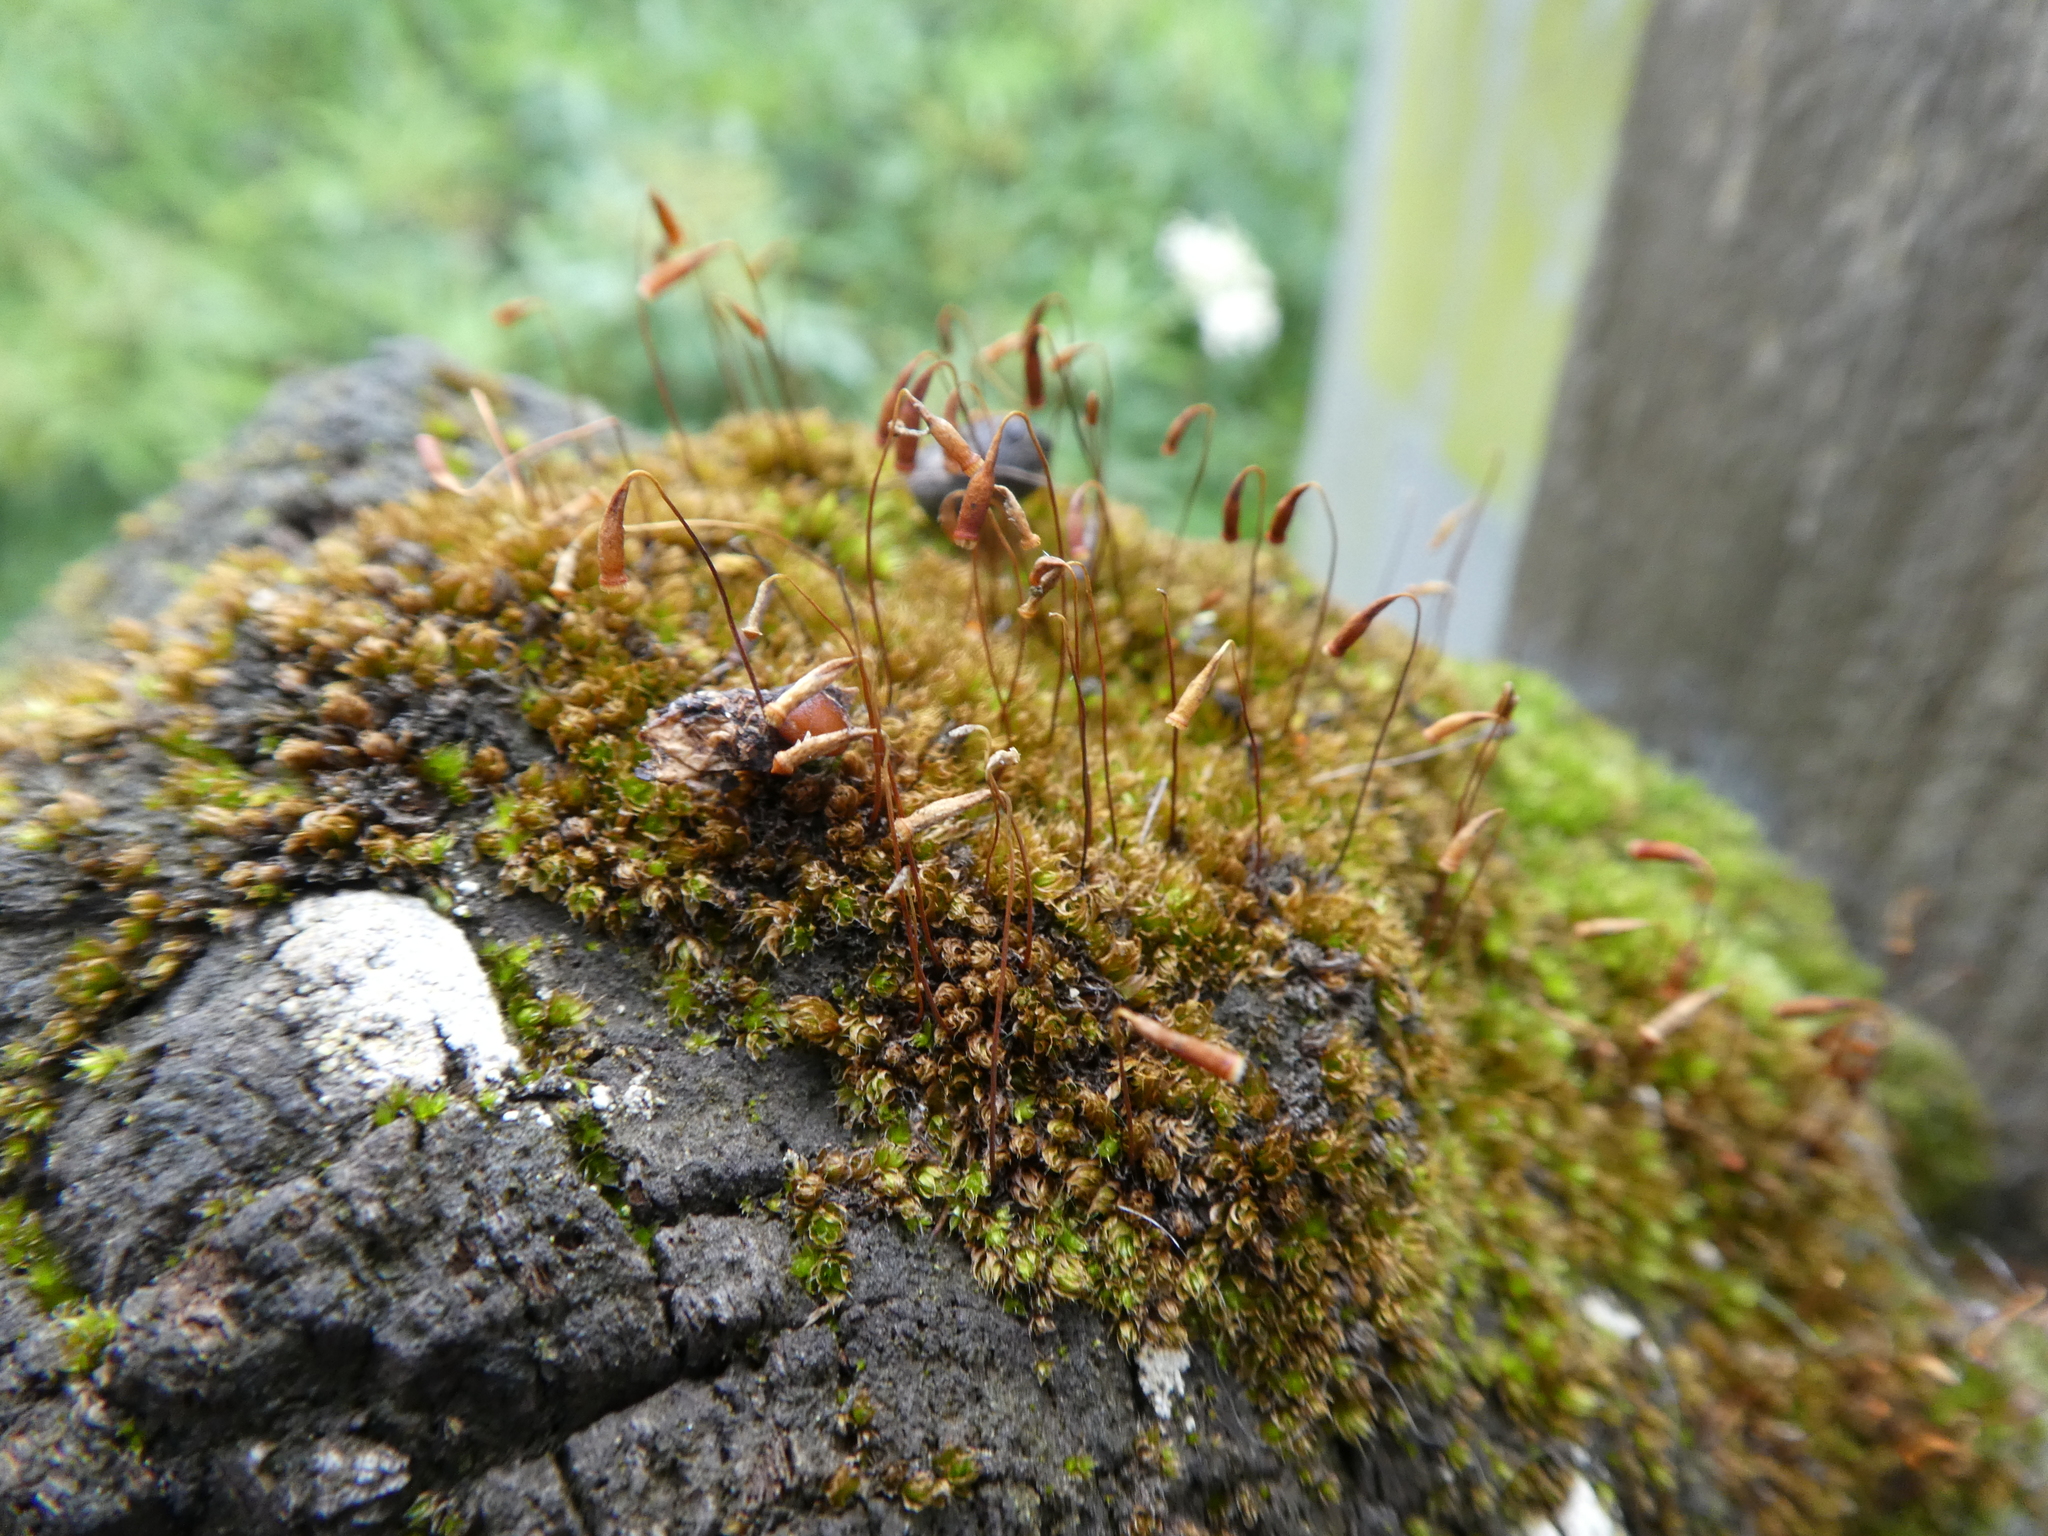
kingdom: Plantae
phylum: Bryophyta
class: Bryopsida
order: Bryales
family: Bryaceae
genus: Rosulabryum
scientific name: Rosulabryum capillare
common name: Capillary thread-moss
